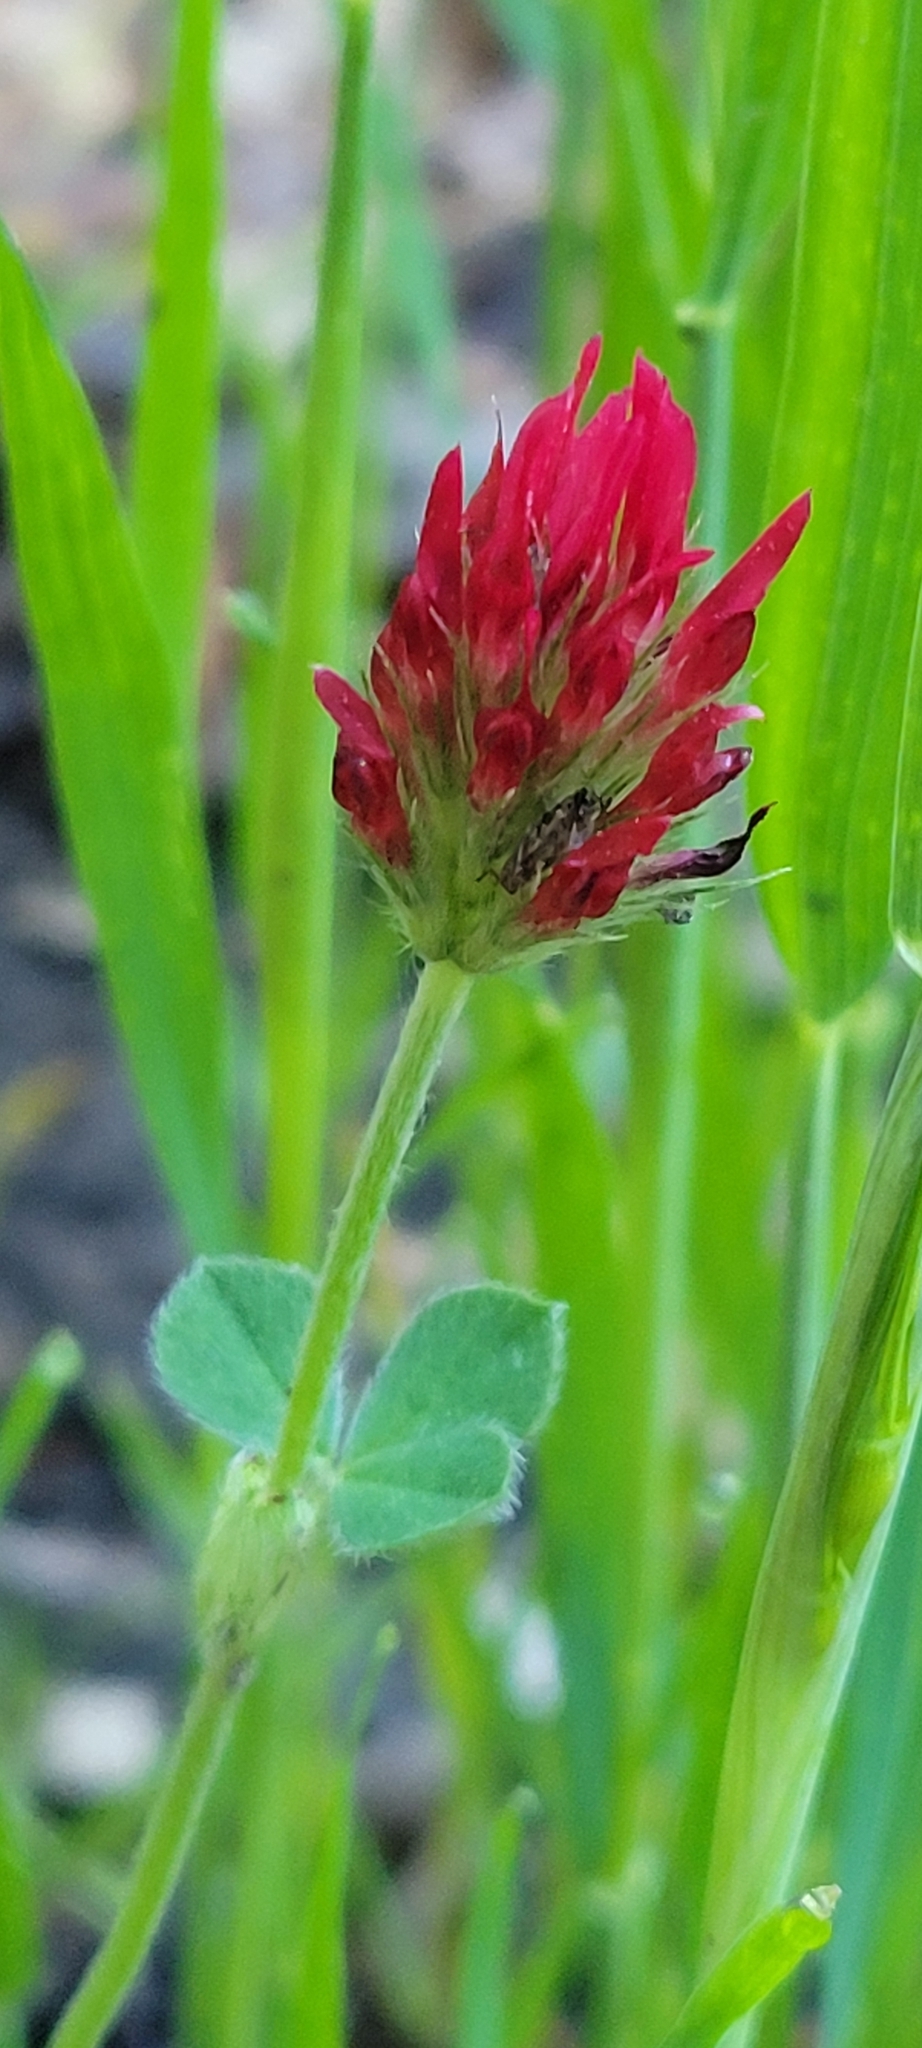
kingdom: Plantae
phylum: Tracheophyta
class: Magnoliopsida
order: Fabales
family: Fabaceae
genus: Trifolium
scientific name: Trifolium incarnatum
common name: Crimson clover
